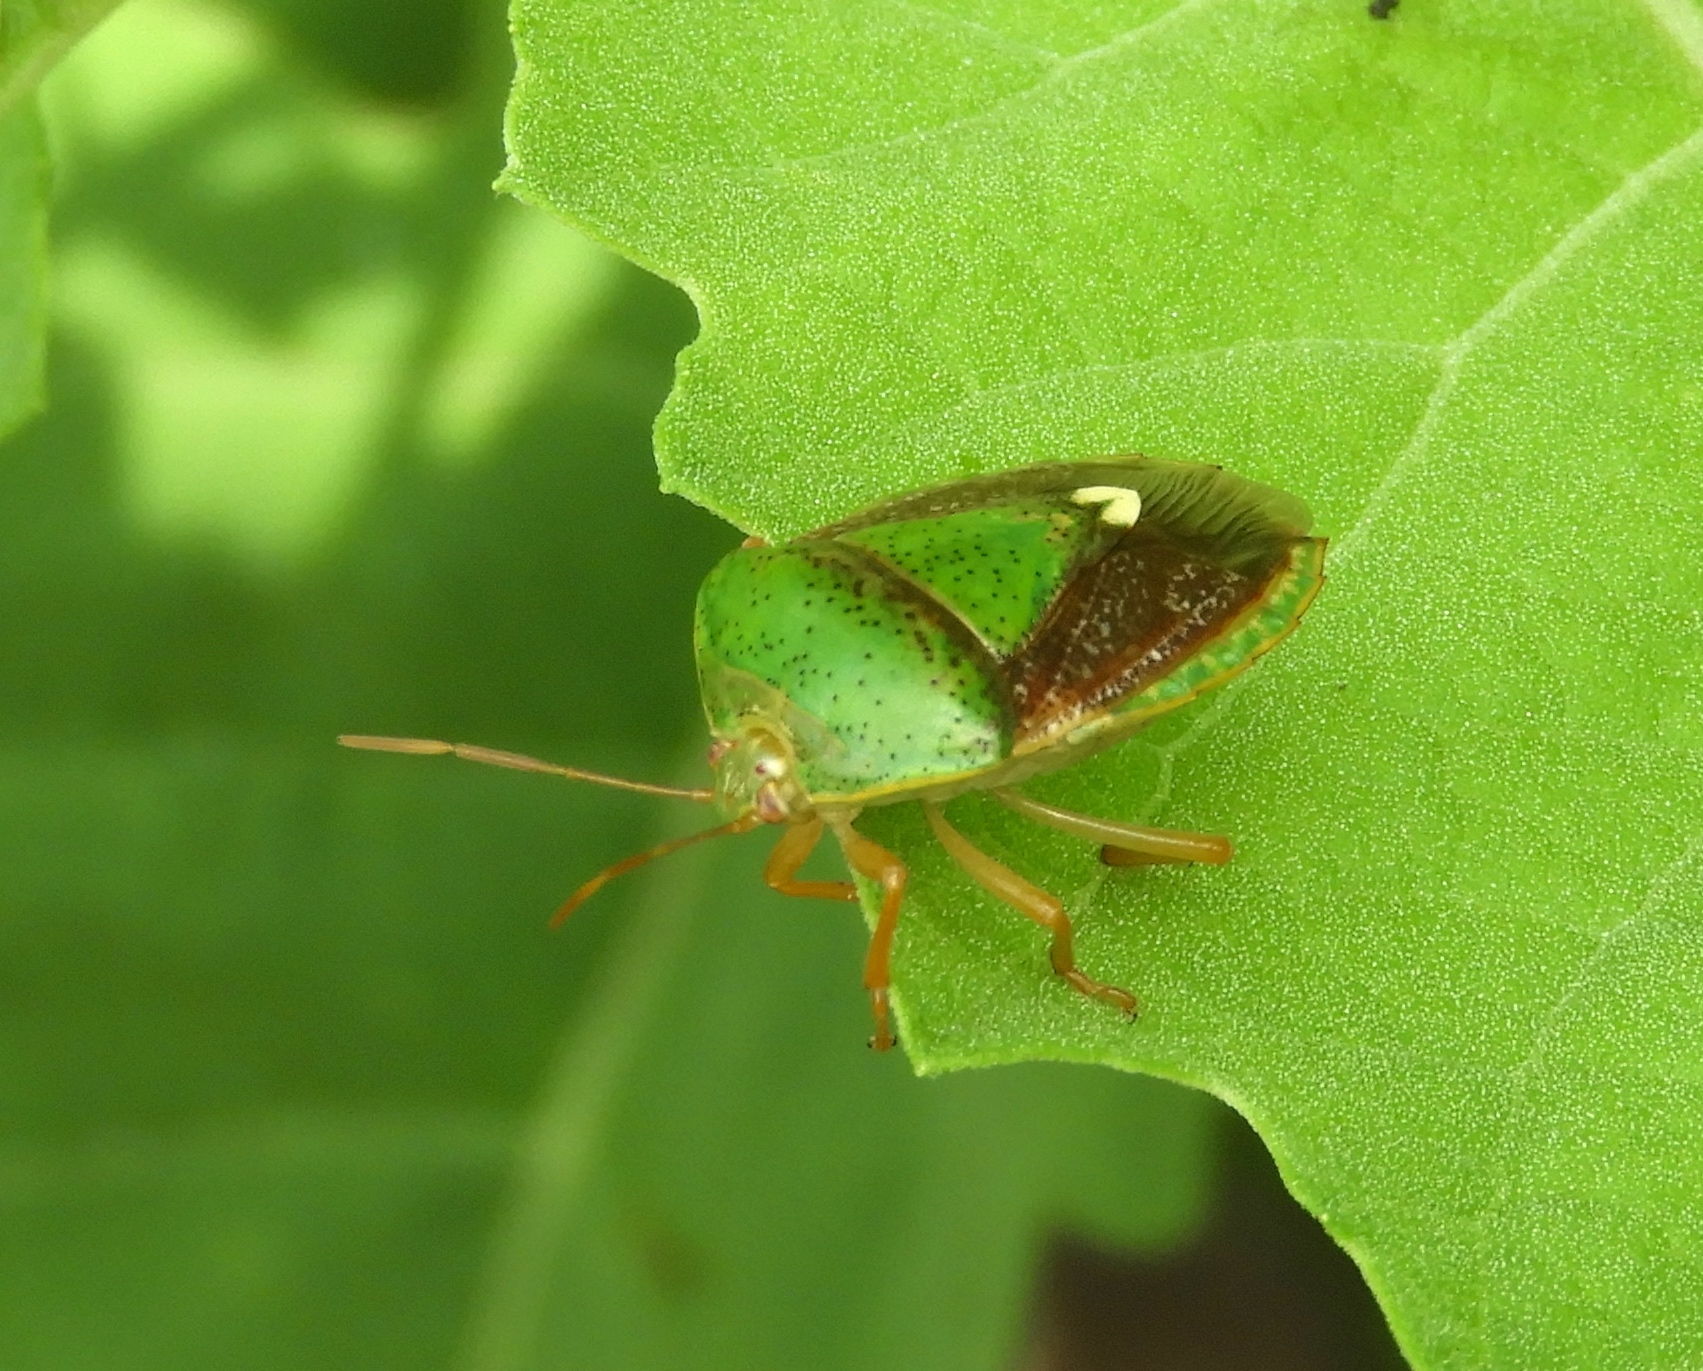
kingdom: Animalia
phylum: Arthropoda
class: Insecta
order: Hemiptera
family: Pentatomidae
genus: Edessa
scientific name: Edessa bifida
